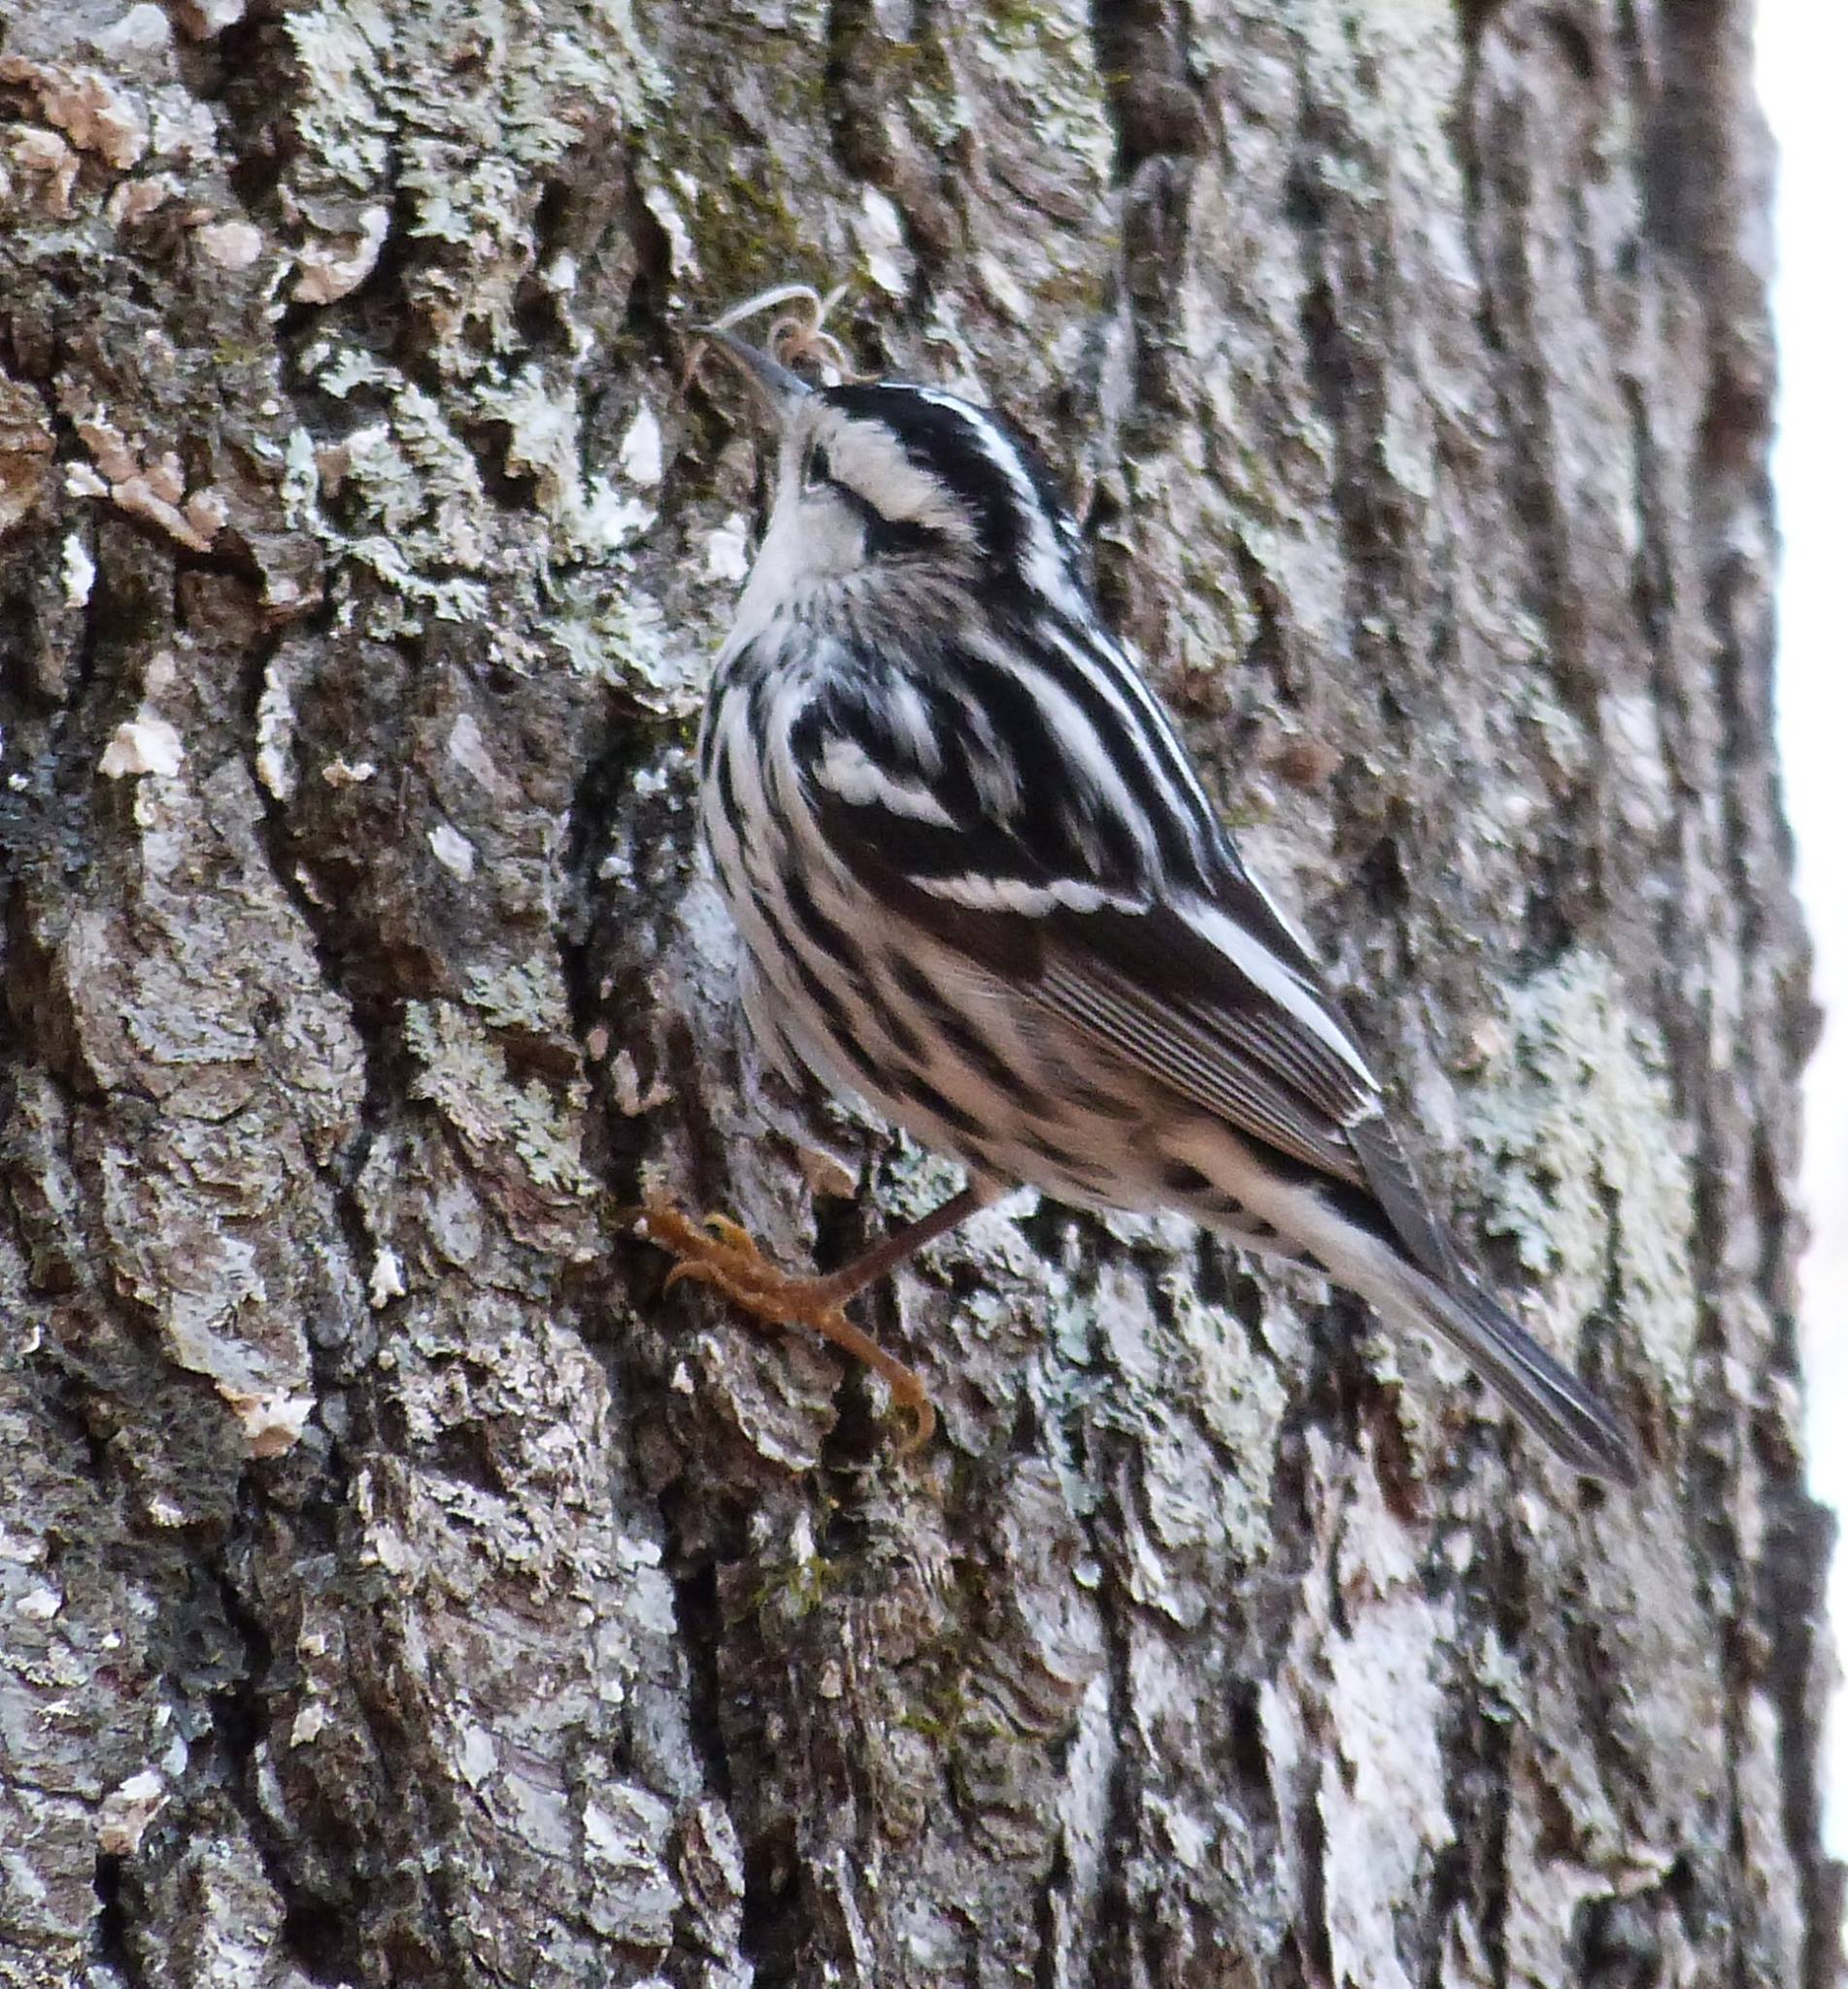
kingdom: Animalia
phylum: Chordata
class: Aves
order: Passeriformes
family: Parulidae
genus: Mniotilta
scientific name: Mniotilta varia
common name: Black-and-white warbler
